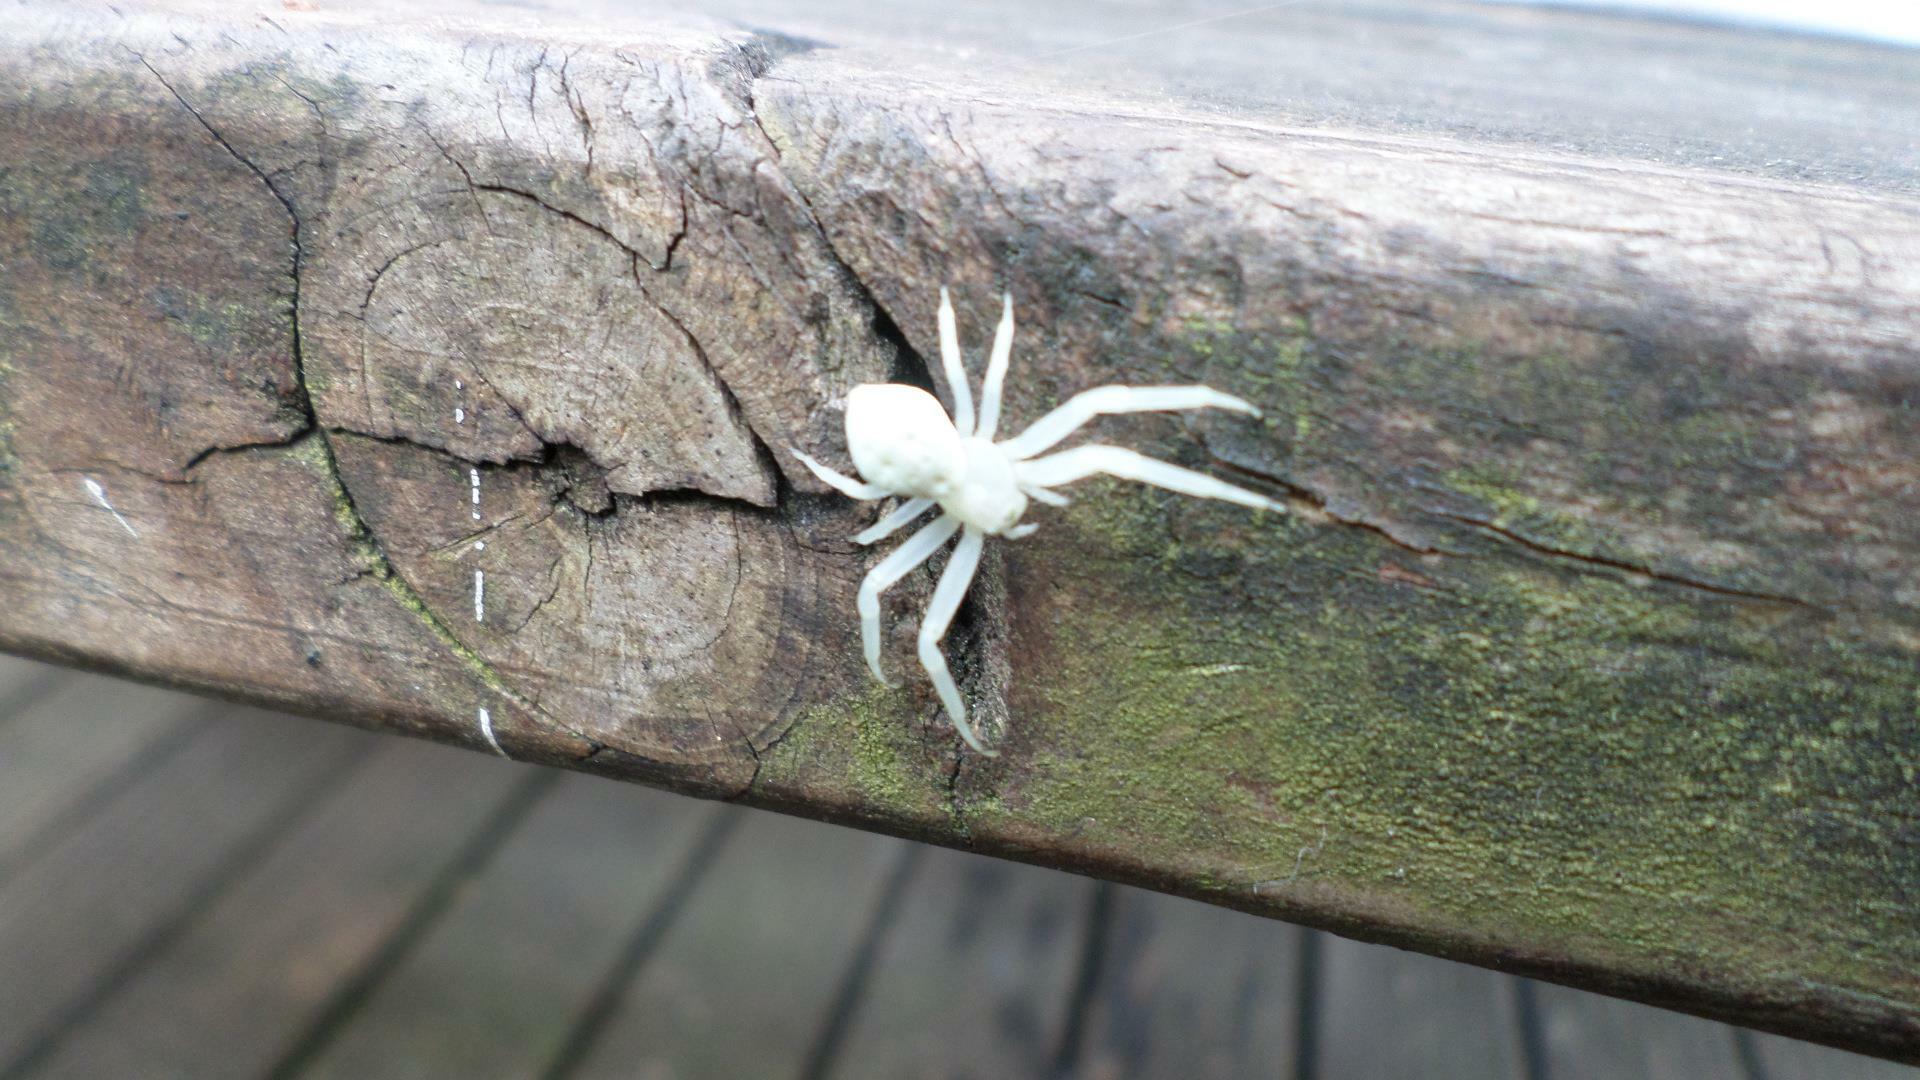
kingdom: Animalia
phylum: Arthropoda
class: Arachnida
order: Araneae
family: Thomisidae
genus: Misumena
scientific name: Misumena vatia
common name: Goldenrod crab spider
